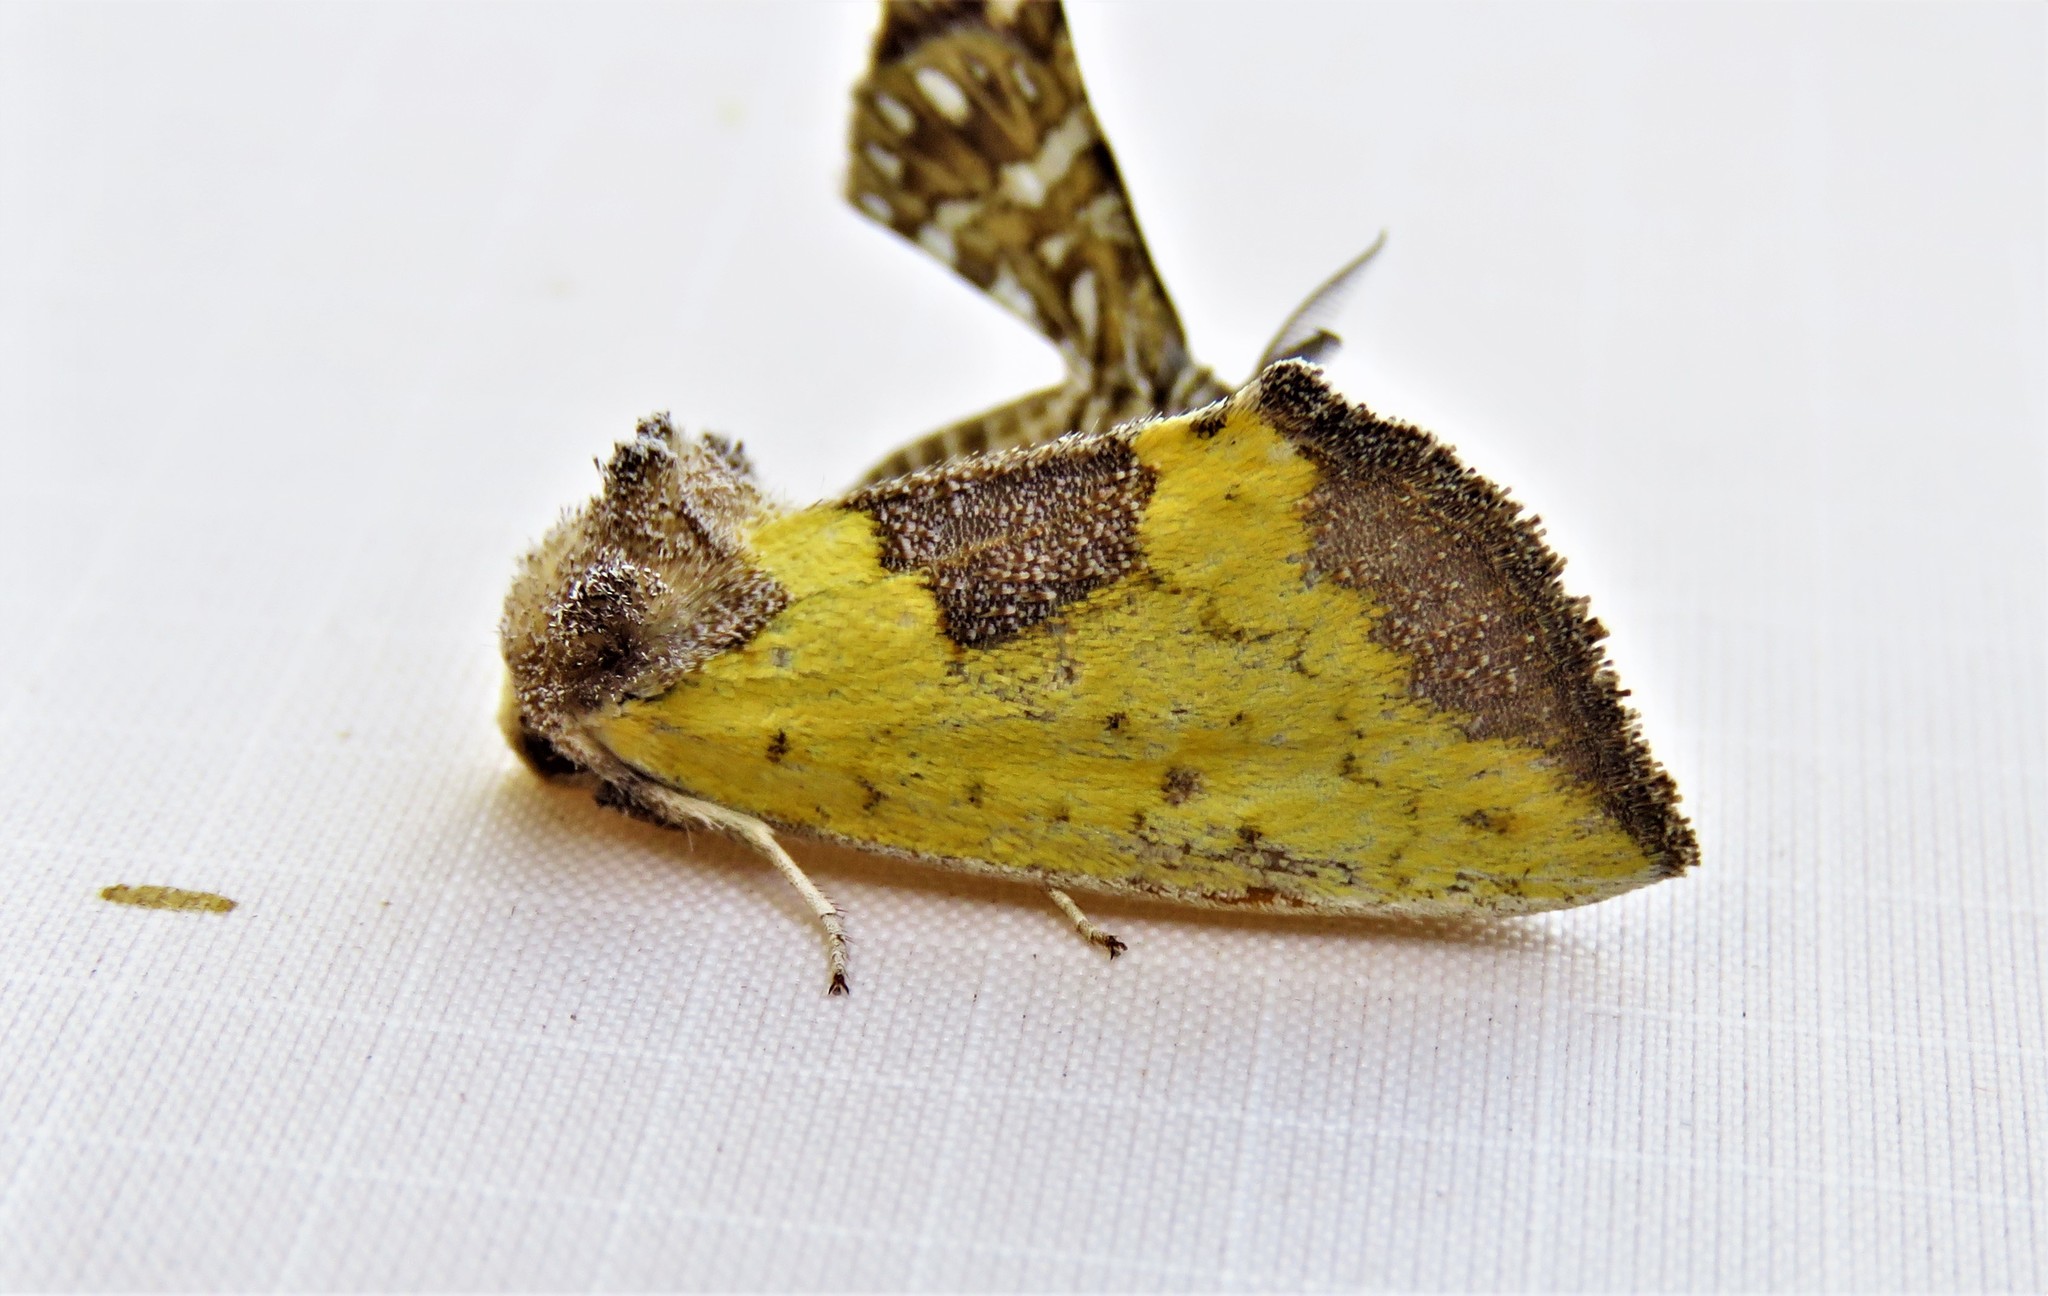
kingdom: Animalia
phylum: Arthropoda
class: Insecta
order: Lepidoptera
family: Noctuidae
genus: Stiria
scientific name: Stiria rugifrons
